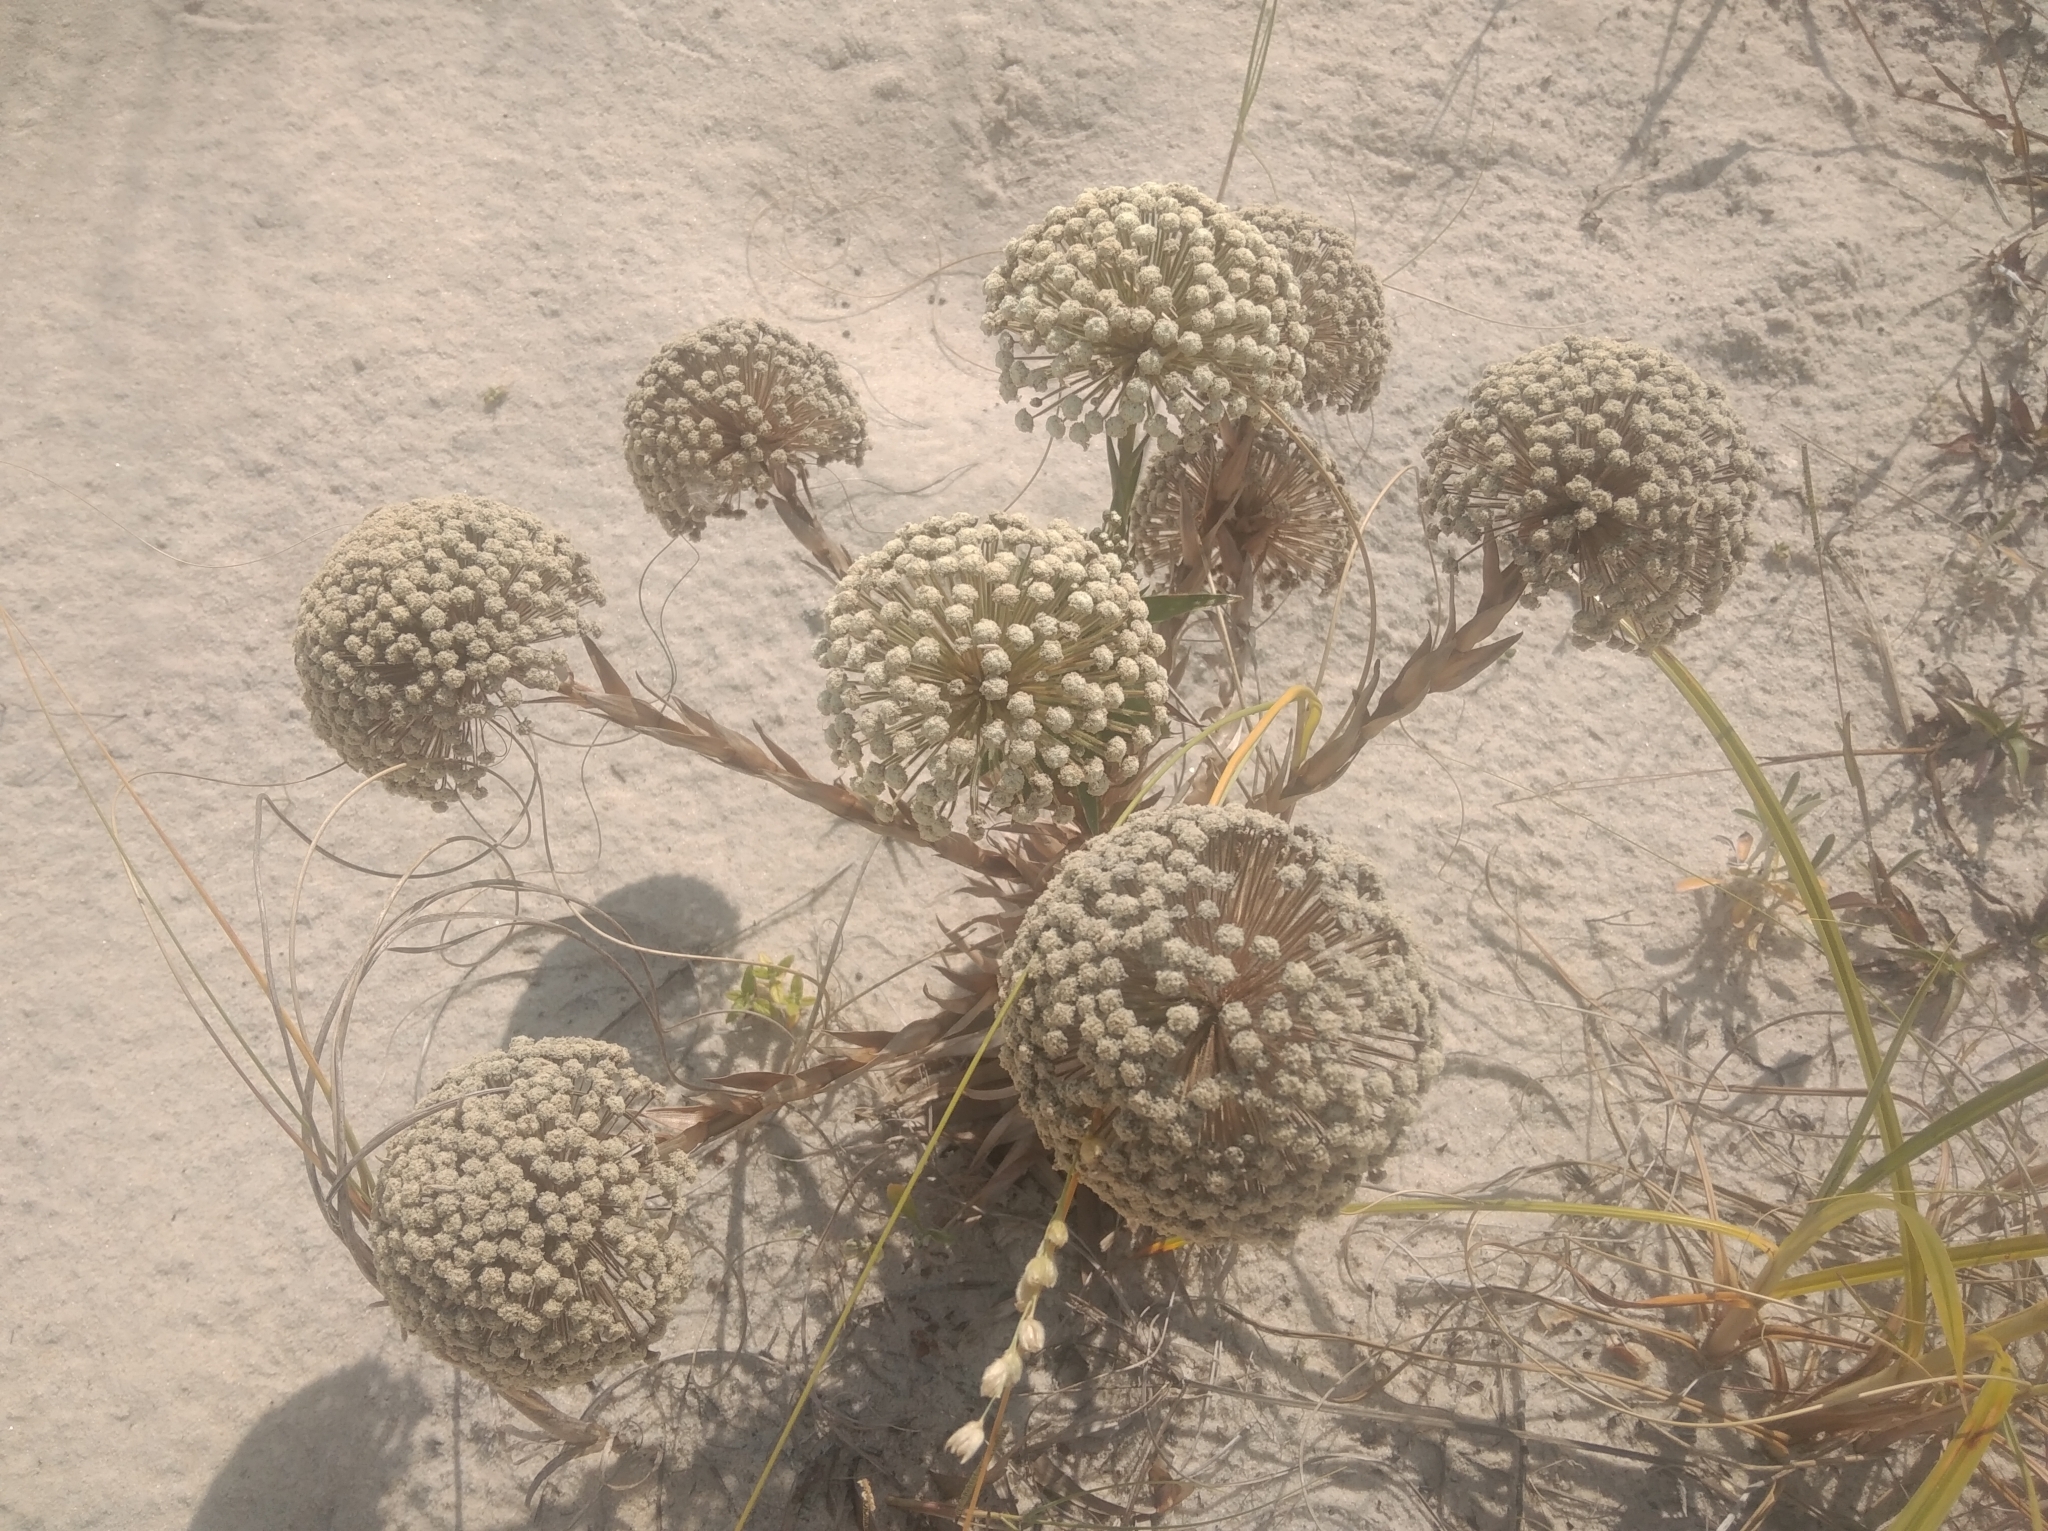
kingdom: Plantae
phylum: Tracheophyta
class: Liliopsida
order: Poales
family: Eriocaulaceae
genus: Paepalanthus
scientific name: Paepalanthus polyanthus
